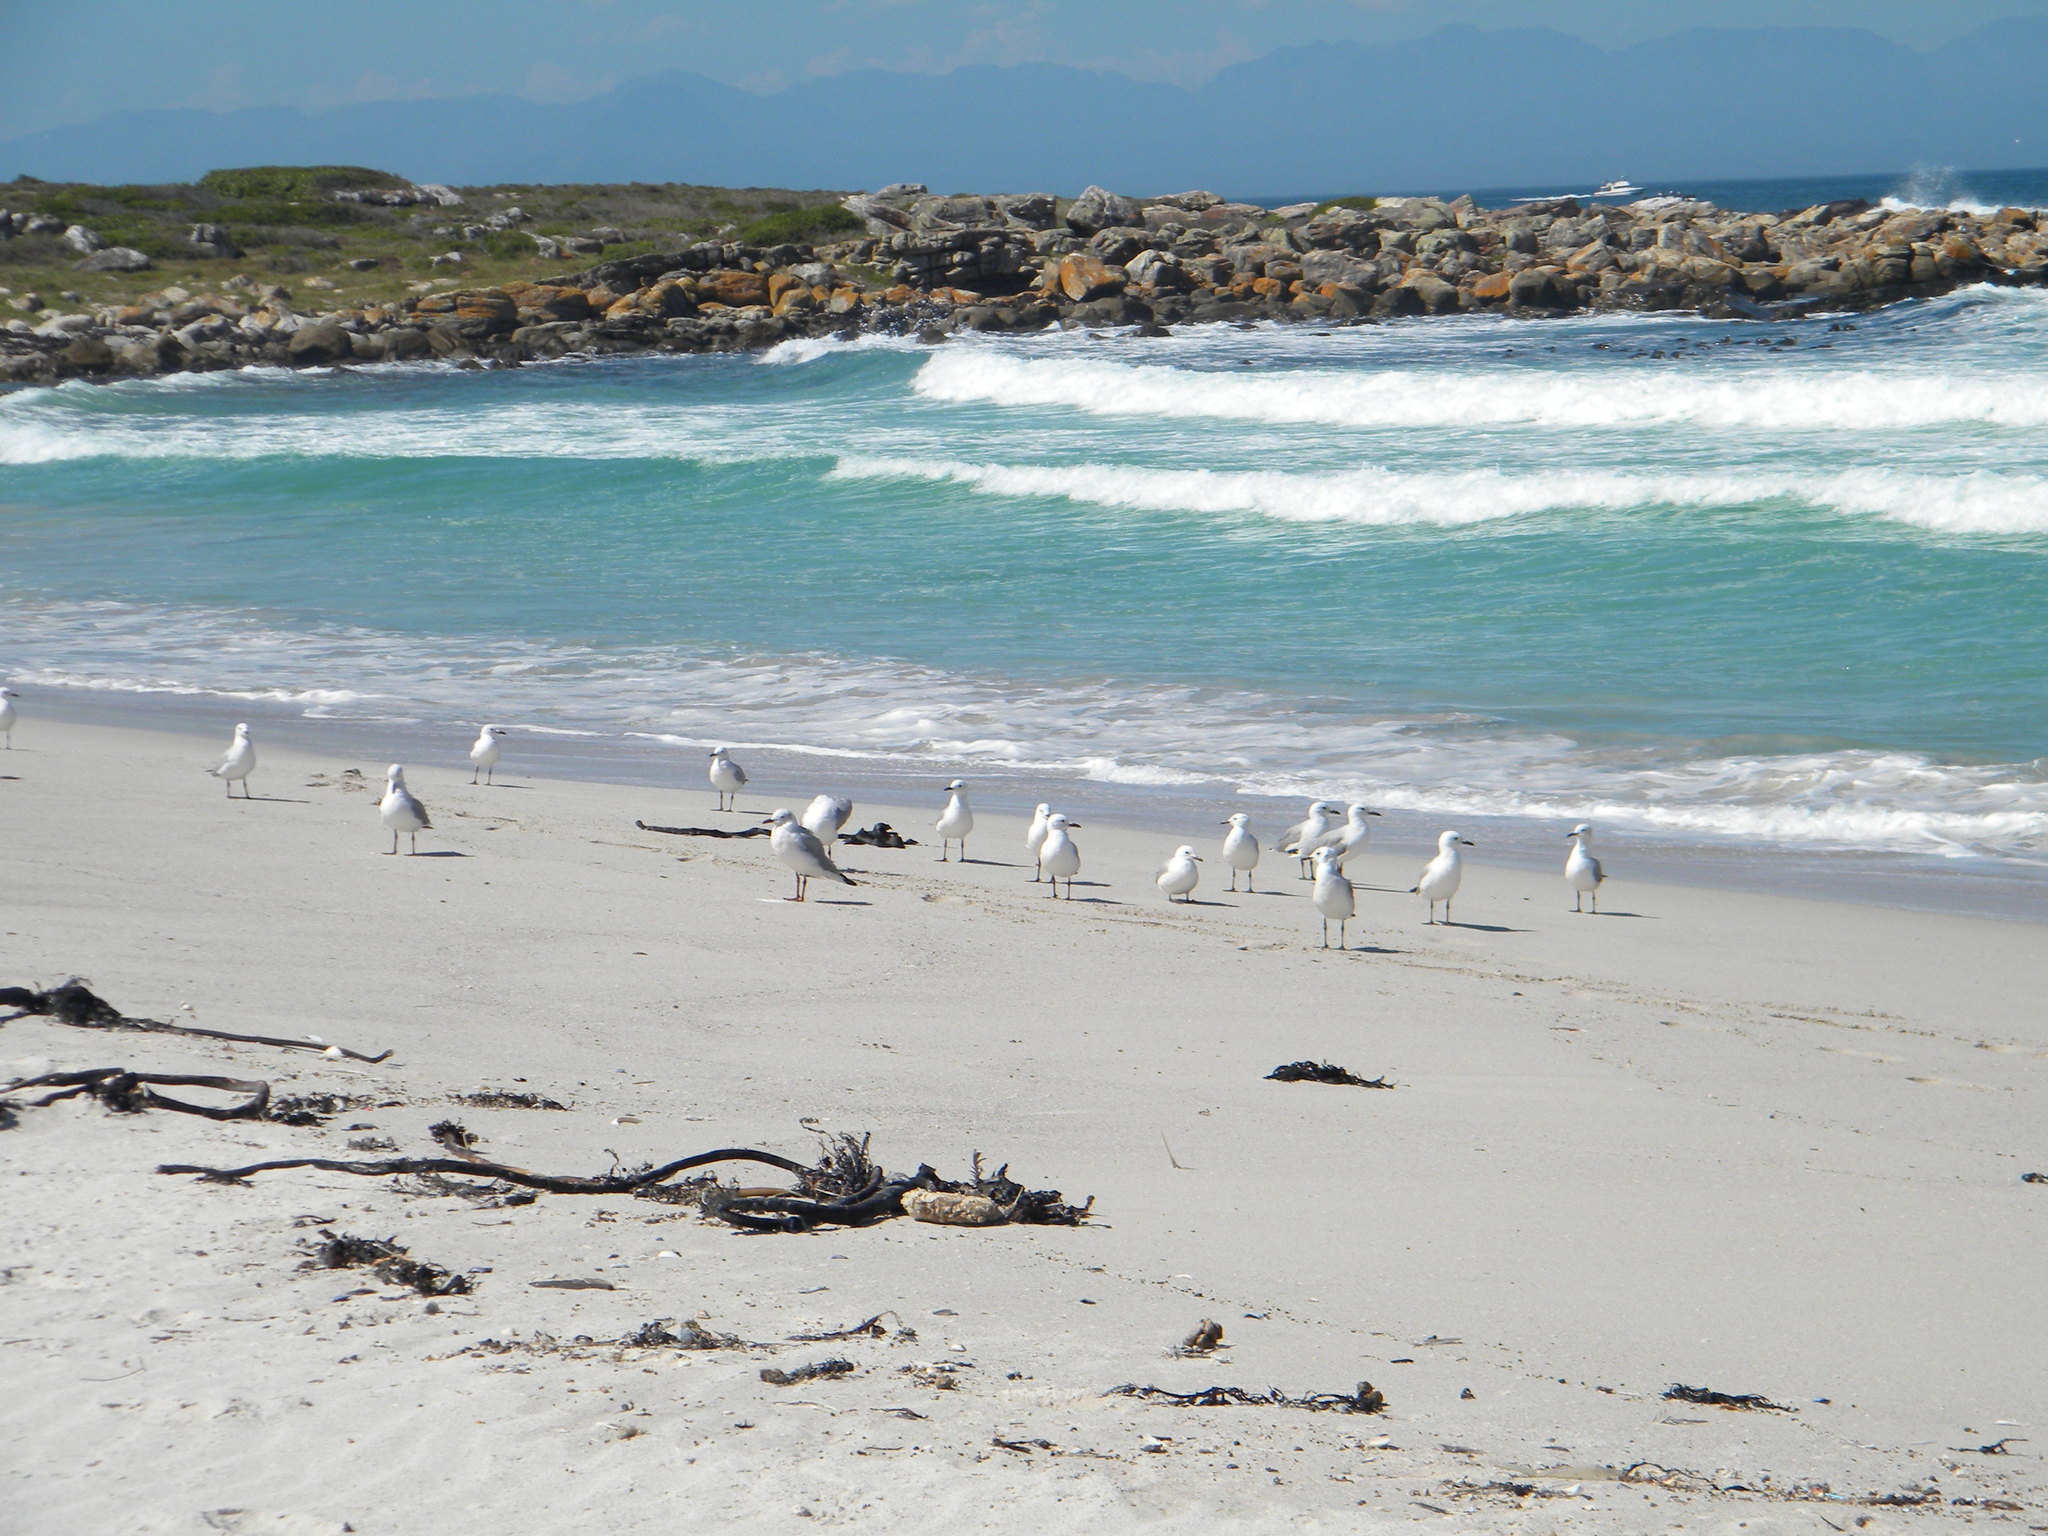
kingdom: Animalia
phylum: Chordata
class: Aves
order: Charadriiformes
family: Laridae
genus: Chroicocephalus
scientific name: Chroicocephalus hartlaubii
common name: Hartlaub's gull
